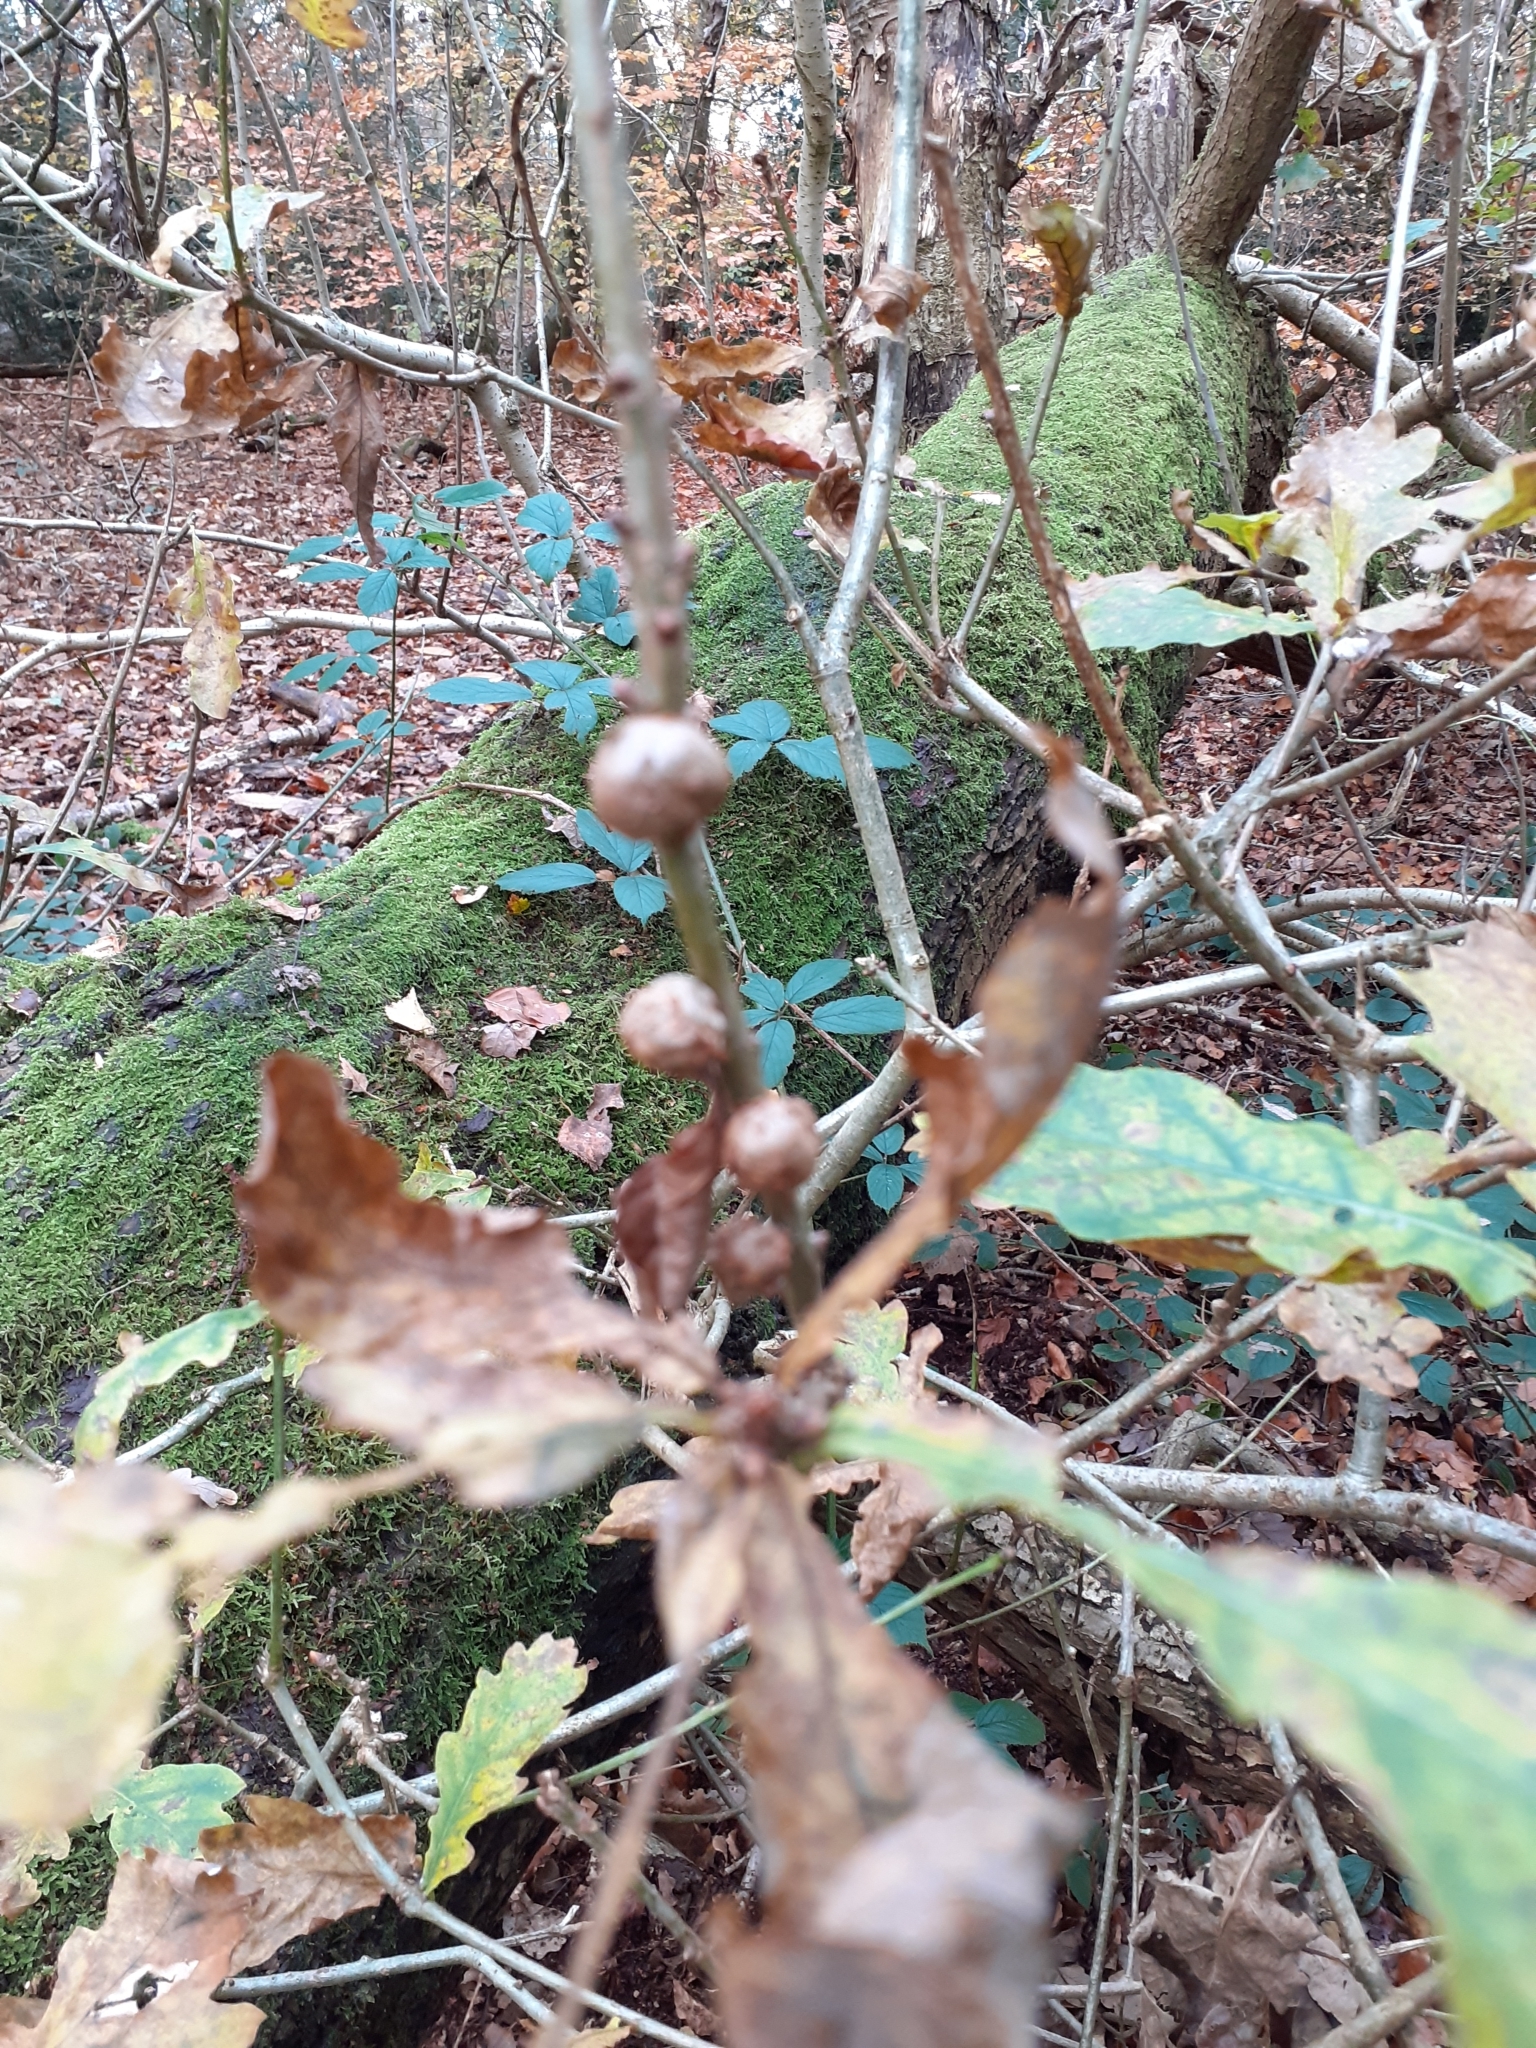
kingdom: Animalia
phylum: Arthropoda
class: Insecta
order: Hymenoptera
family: Cynipidae
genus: Andricus
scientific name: Andricus lignicolus
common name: Cola-nut gall
